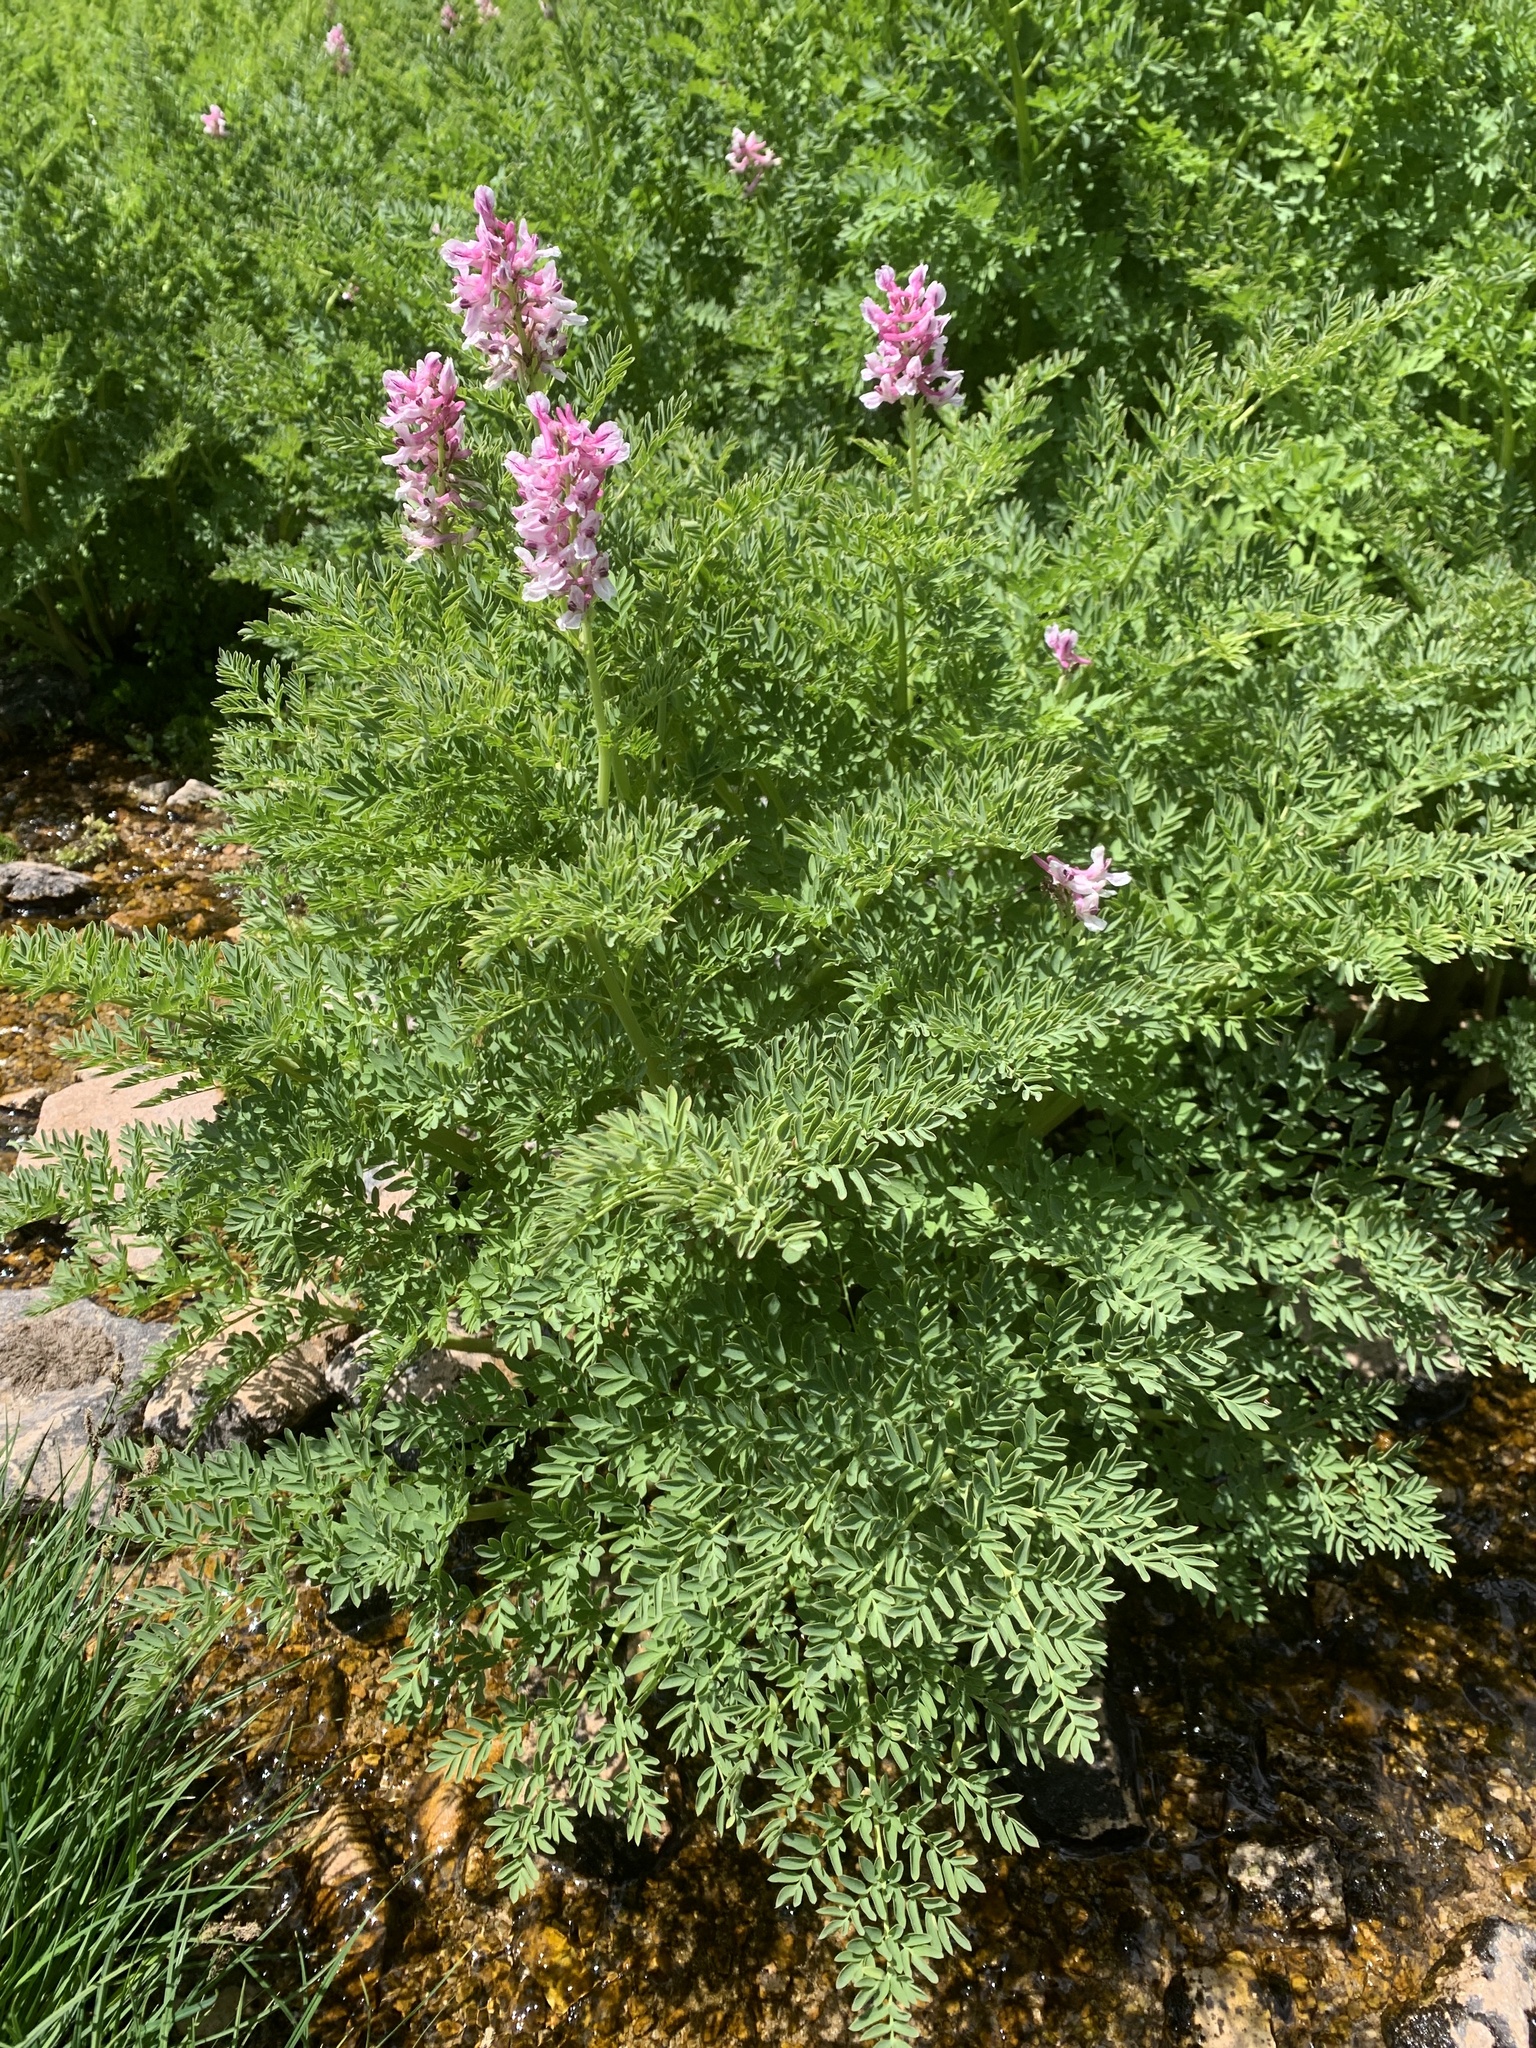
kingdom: Plantae
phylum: Tracheophyta
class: Magnoliopsida
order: Ranunculales
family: Papaveraceae
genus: Corydalis
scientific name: Corydalis caseana
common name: Fitweed
